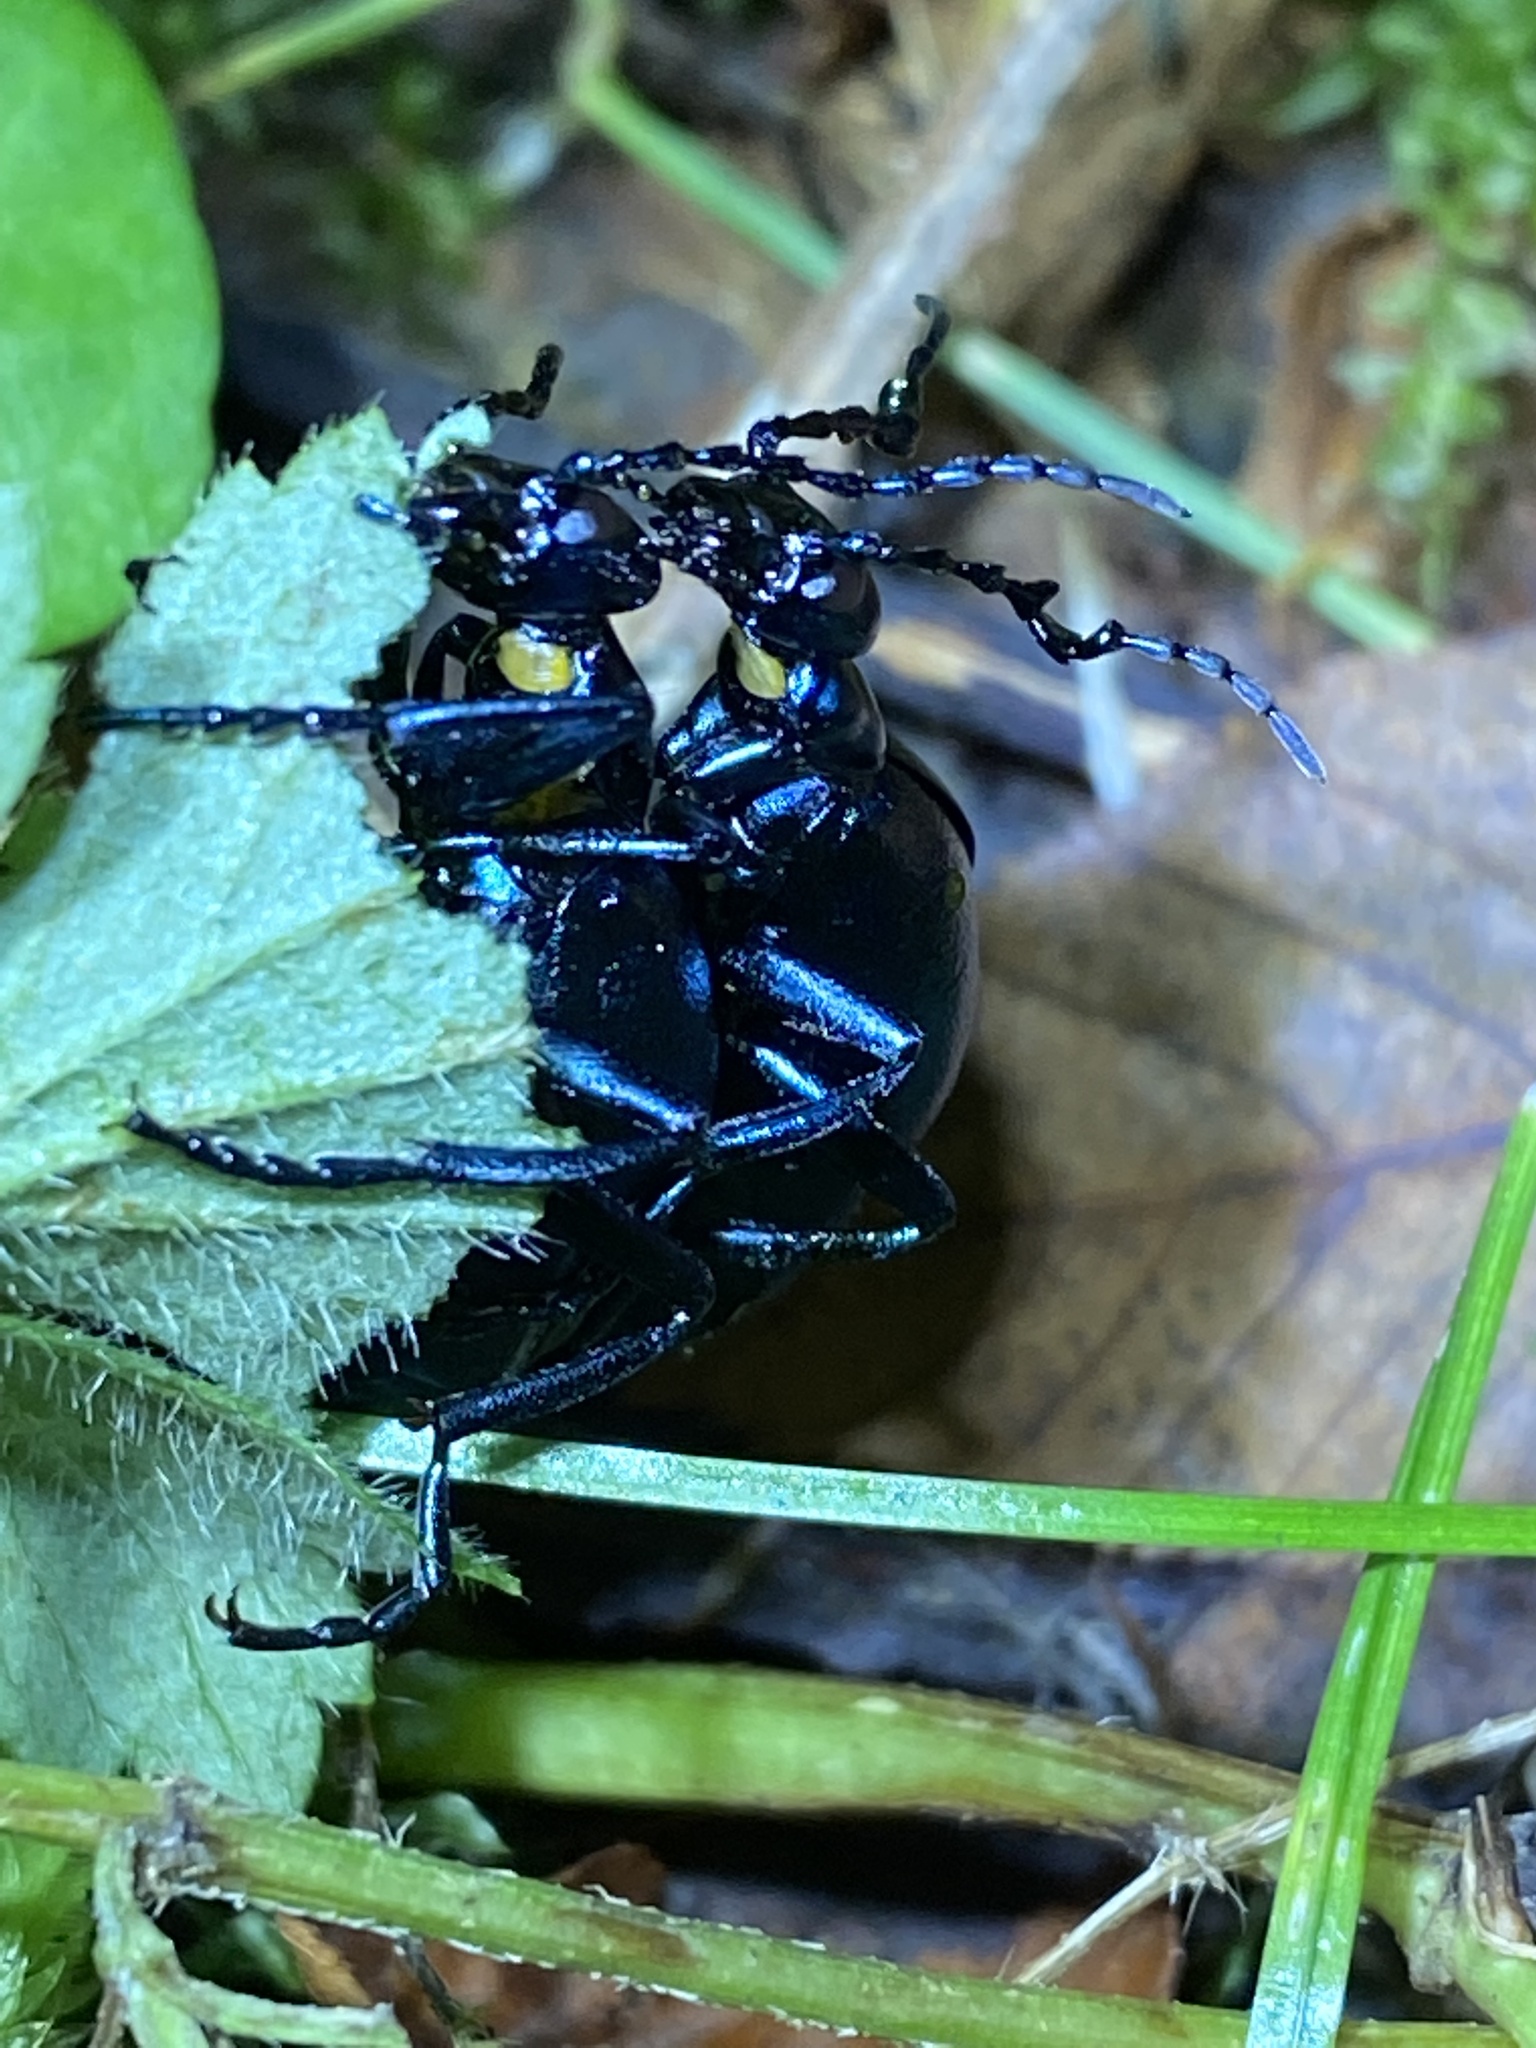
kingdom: Animalia
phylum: Arthropoda
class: Insecta
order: Coleoptera
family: Meloidae
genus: Meloe
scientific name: Meloe impressus
